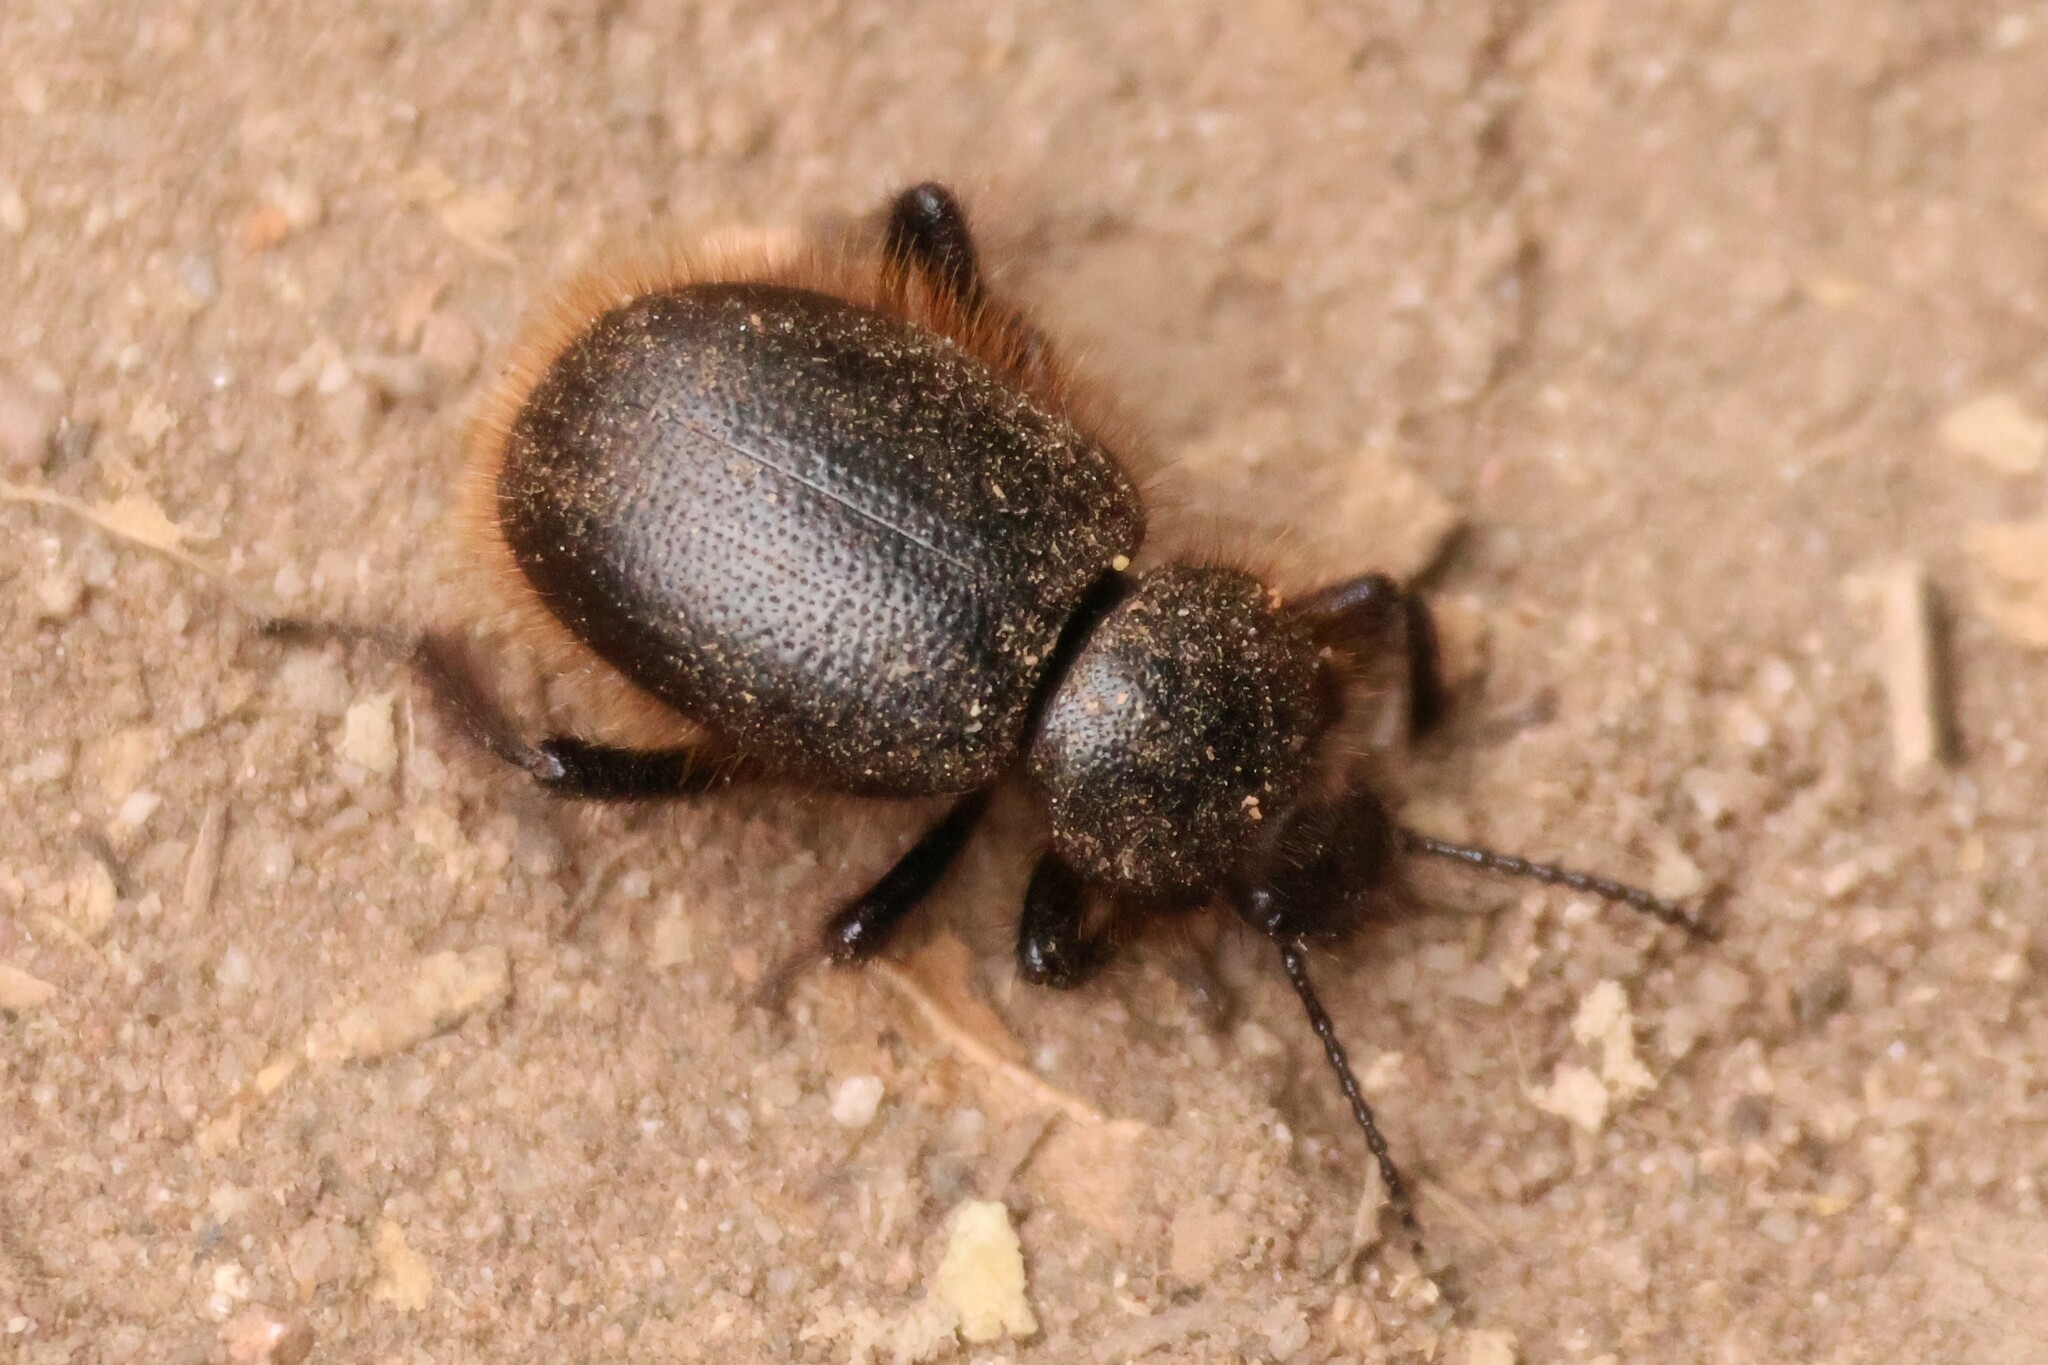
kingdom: Animalia
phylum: Arthropoda
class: Insecta
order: Coleoptera
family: Tenebrionidae
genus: Eleodes
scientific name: Eleodes osculans
